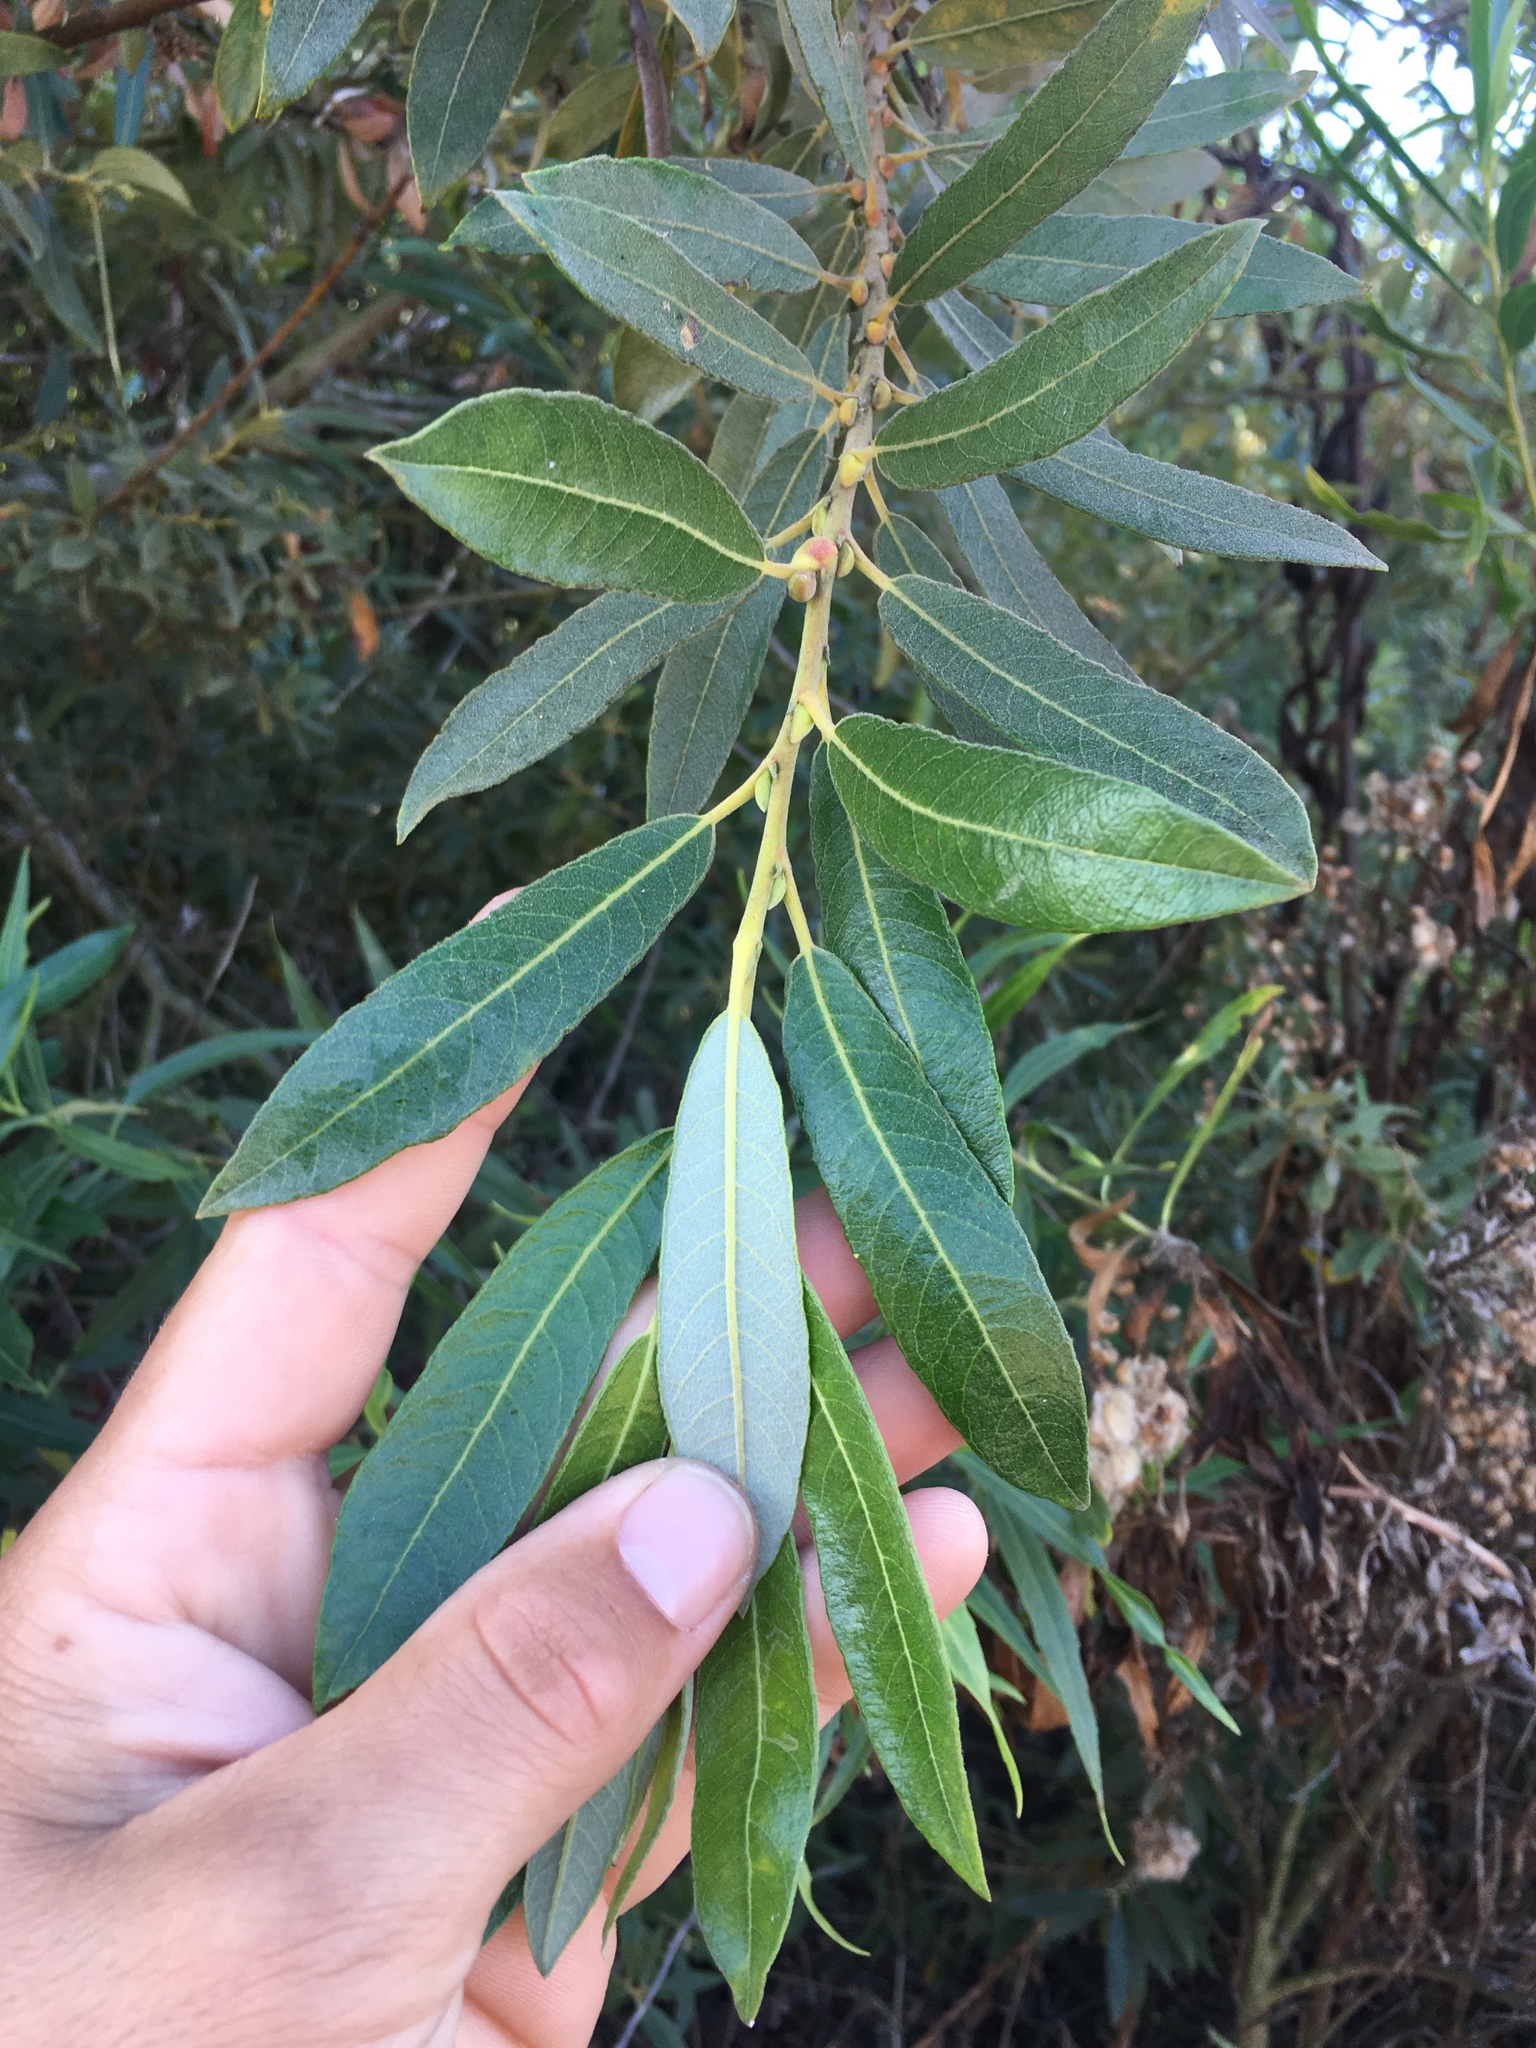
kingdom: Plantae
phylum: Tracheophyta
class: Magnoliopsida
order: Malpighiales
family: Salicaceae
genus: Salix
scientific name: Salix lasiolepis
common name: Arroyo willow
